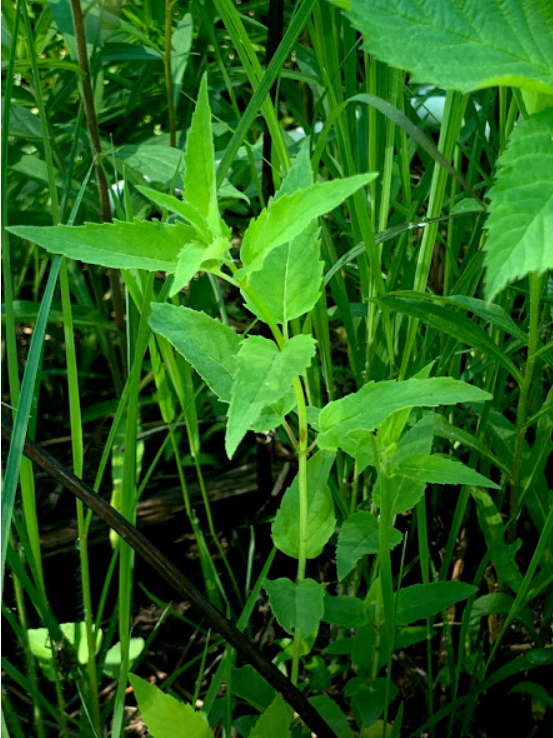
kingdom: Plantae
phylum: Tracheophyta
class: Magnoliopsida
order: Lamiales
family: Lamiaceae
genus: Monarda
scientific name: Monarda fistulosa
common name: Purple beebalm
